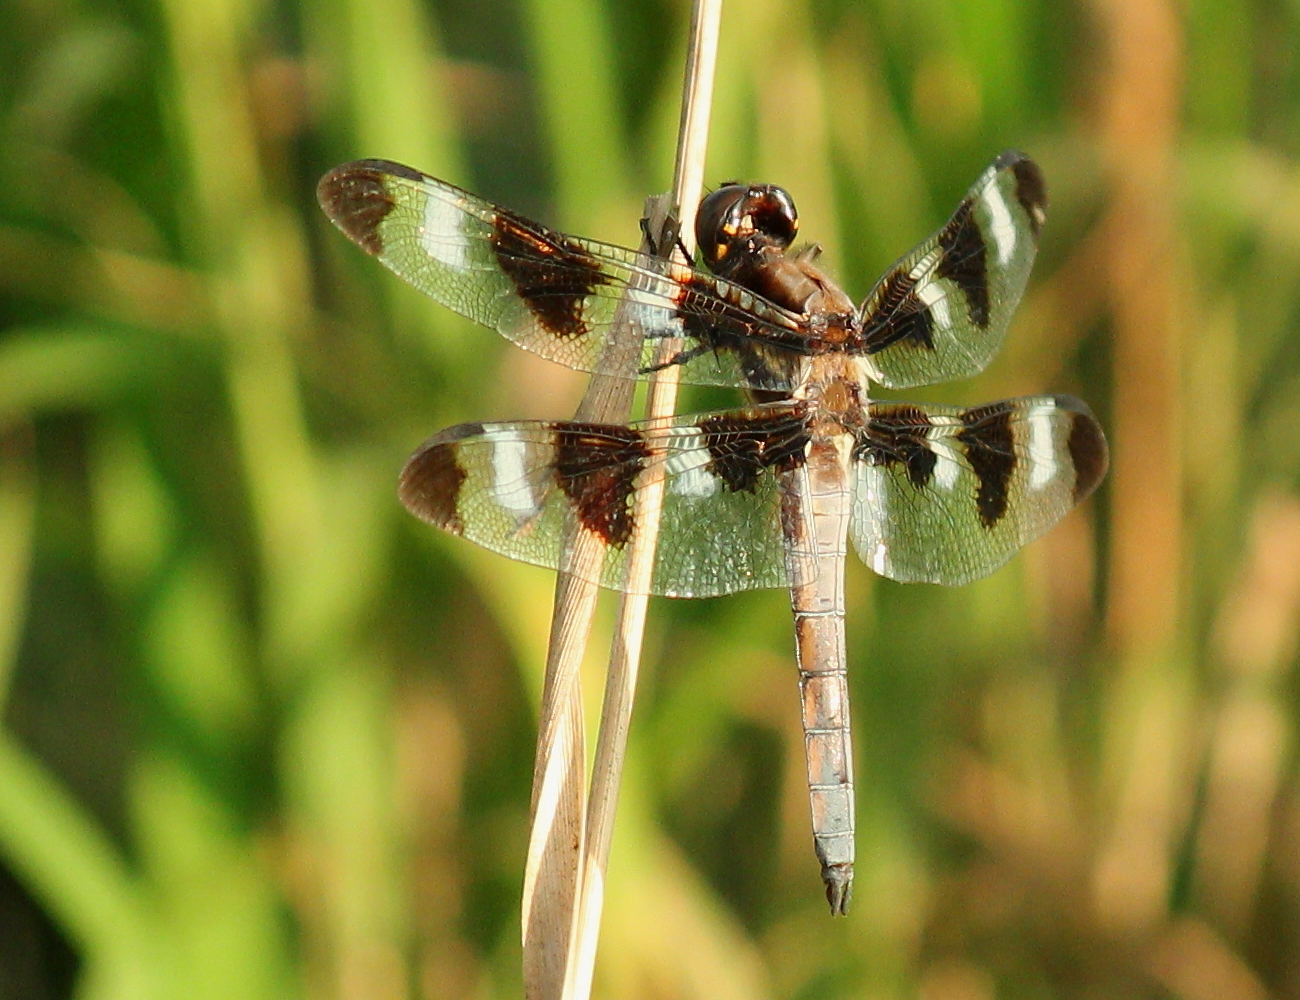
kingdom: Animalia
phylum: Arthropoda
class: Insecta
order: Odonata
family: Libellulidae
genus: Libellula
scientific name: Libellula pulchella
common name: Twelve-spotted skimmer
